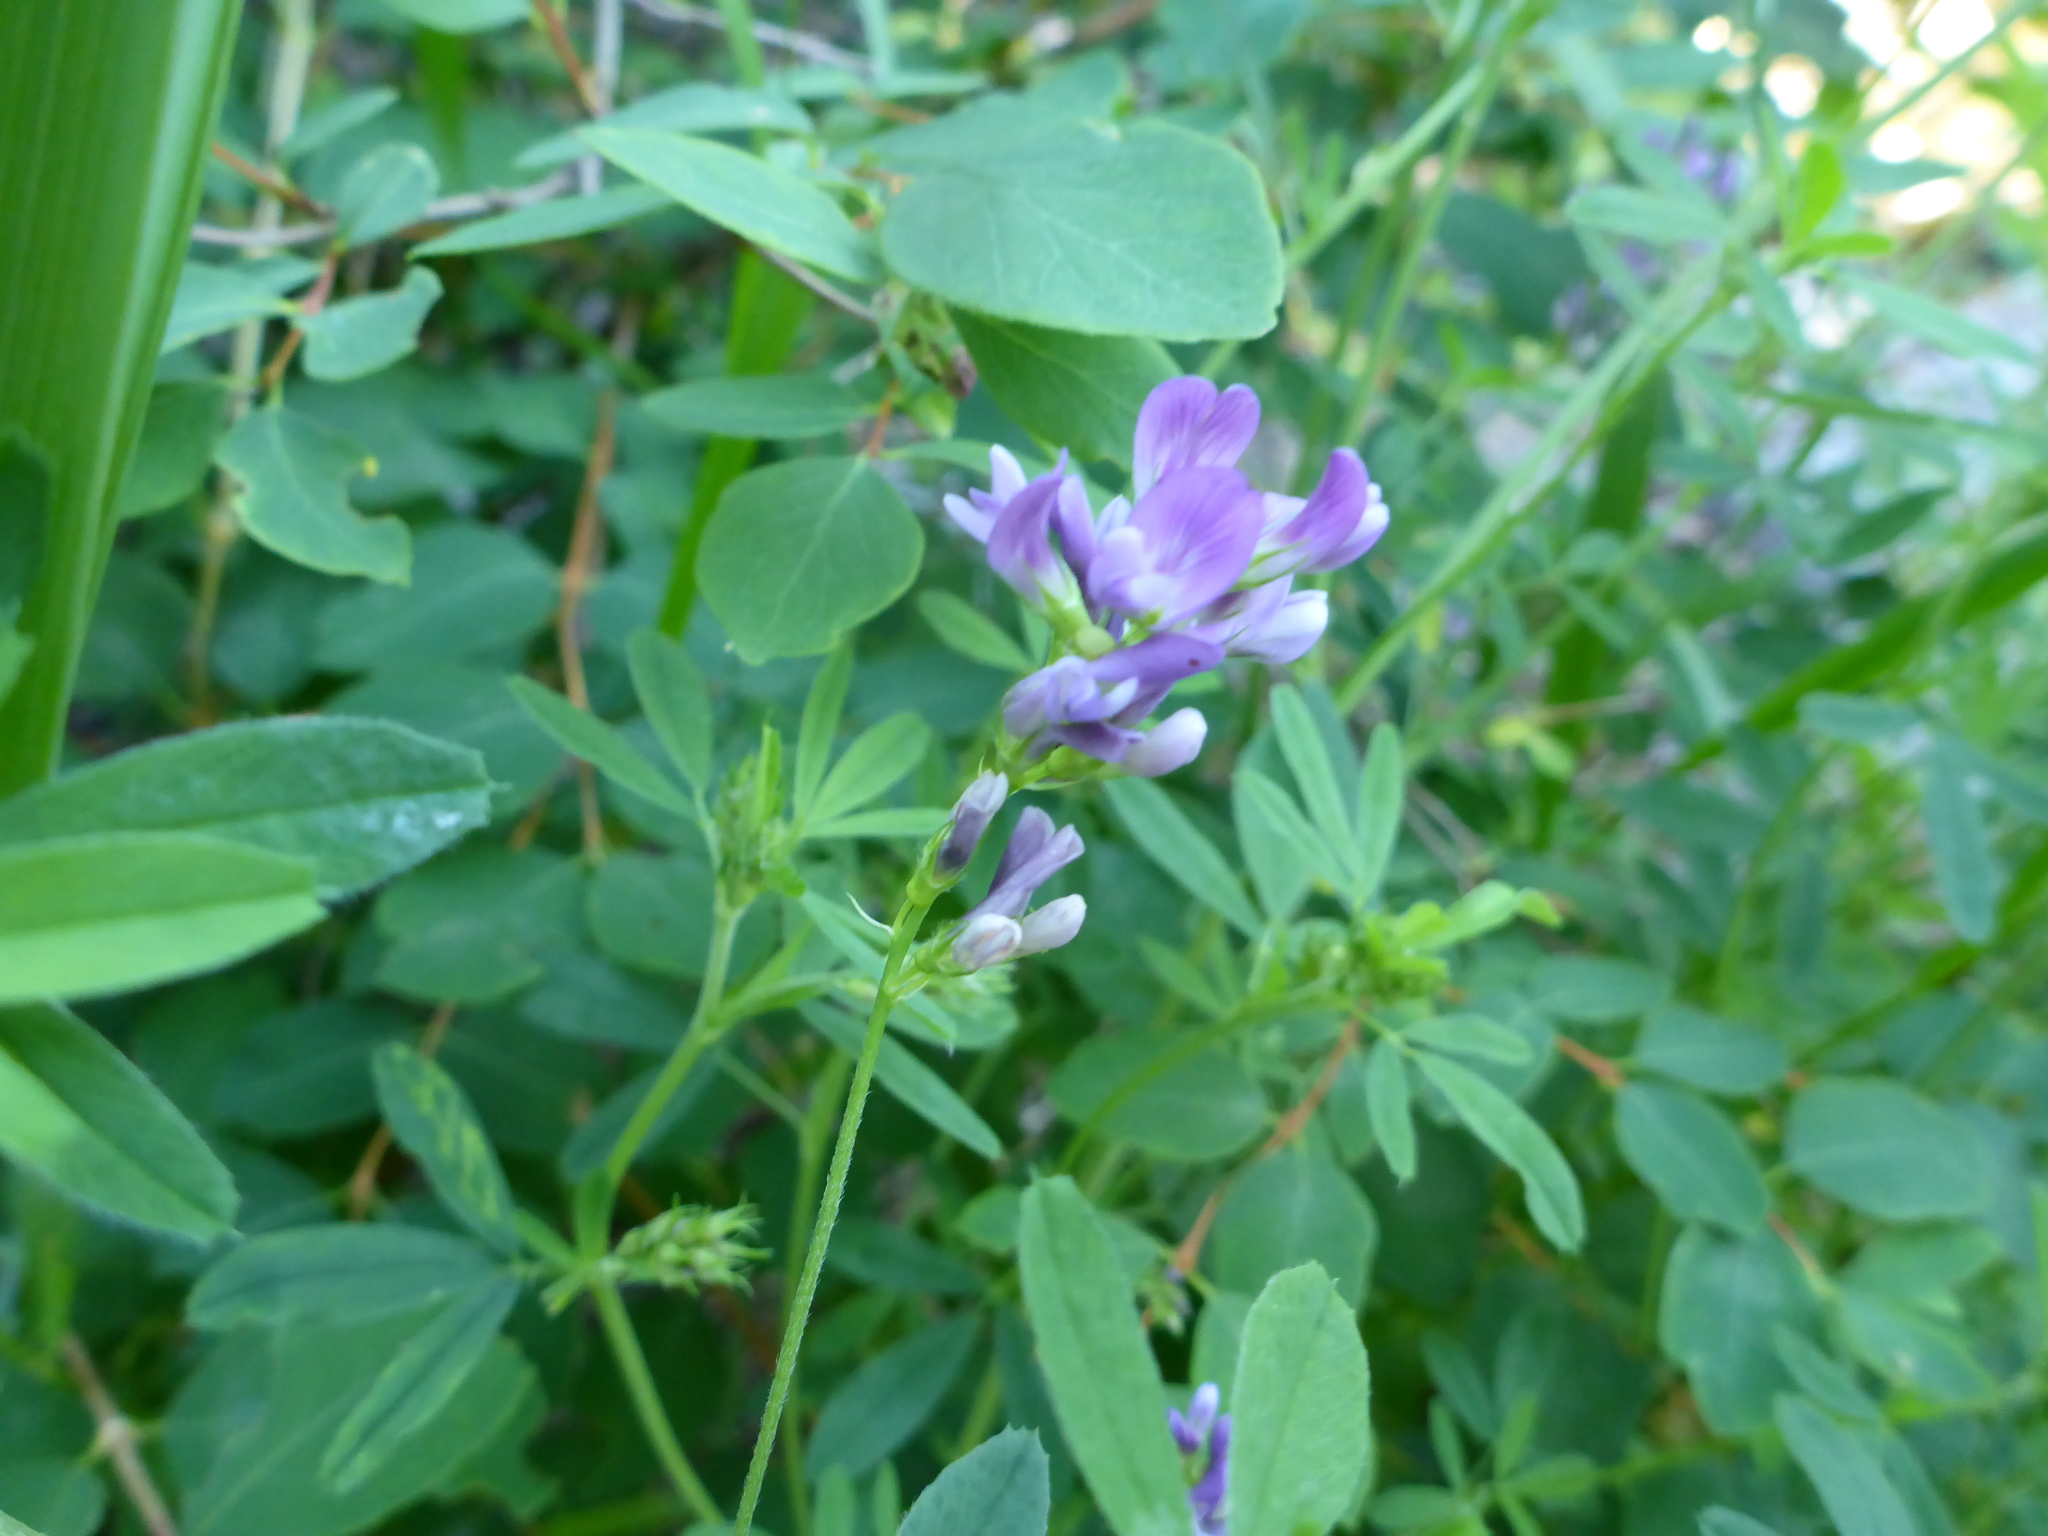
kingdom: Plantae
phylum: Tracheophyta
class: Magnoliopsida
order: Fabales
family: Fabaceae
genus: Medicago
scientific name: Medicago sativa
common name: Alfalfa
